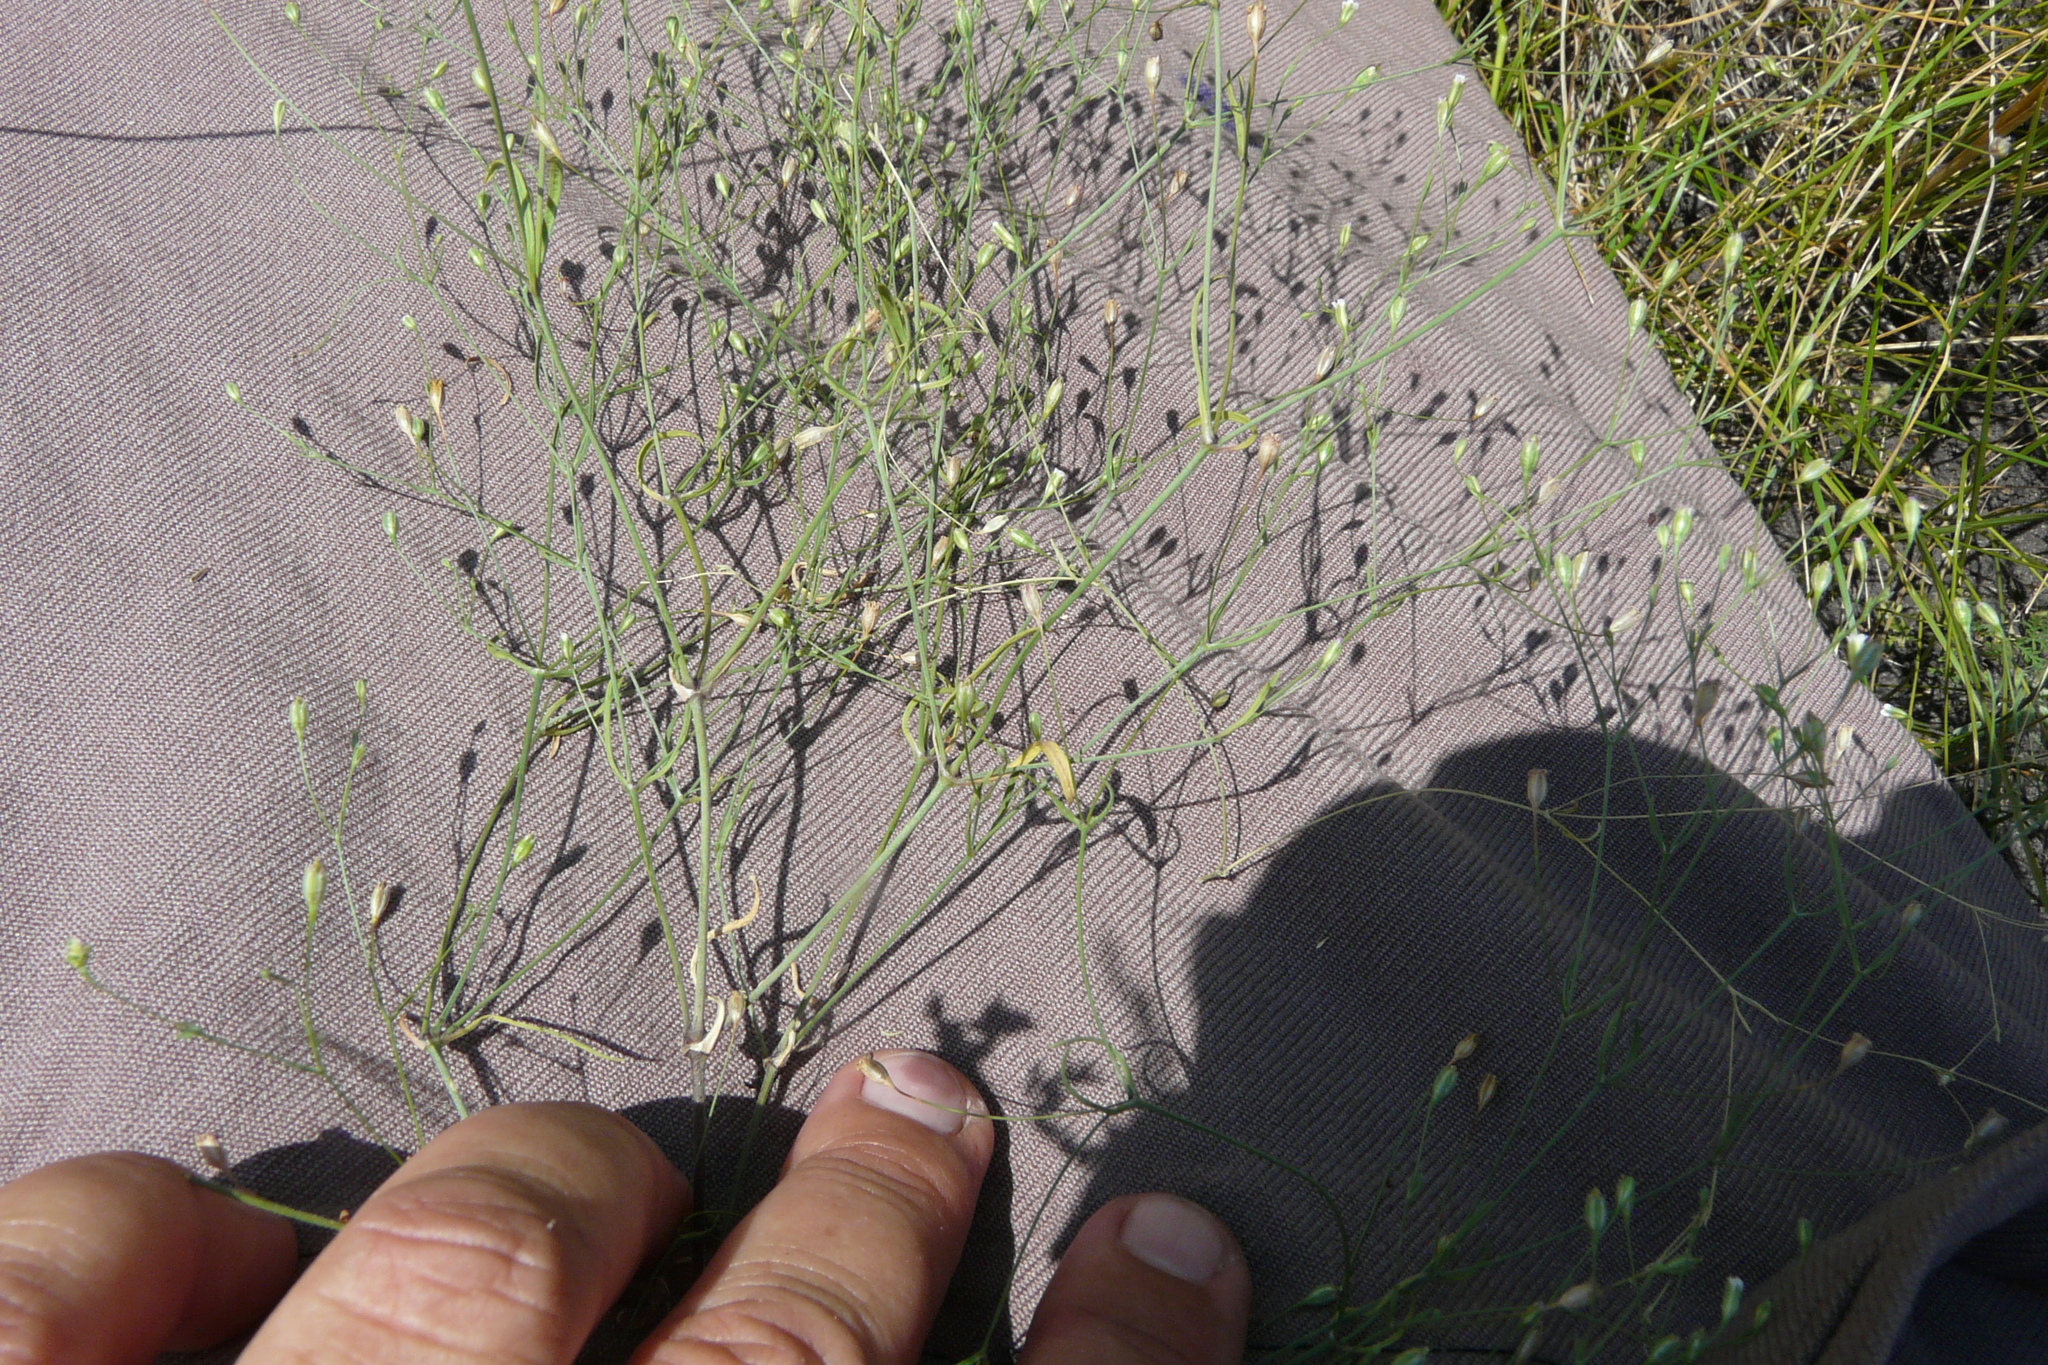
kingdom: Plantae
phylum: Tracheophyta
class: Magnoliopsida
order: Caryophyllales
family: Caryophyllaceae
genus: Psammophiliella
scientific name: Psammophiliella muralis
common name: Cushion baby's-breath
